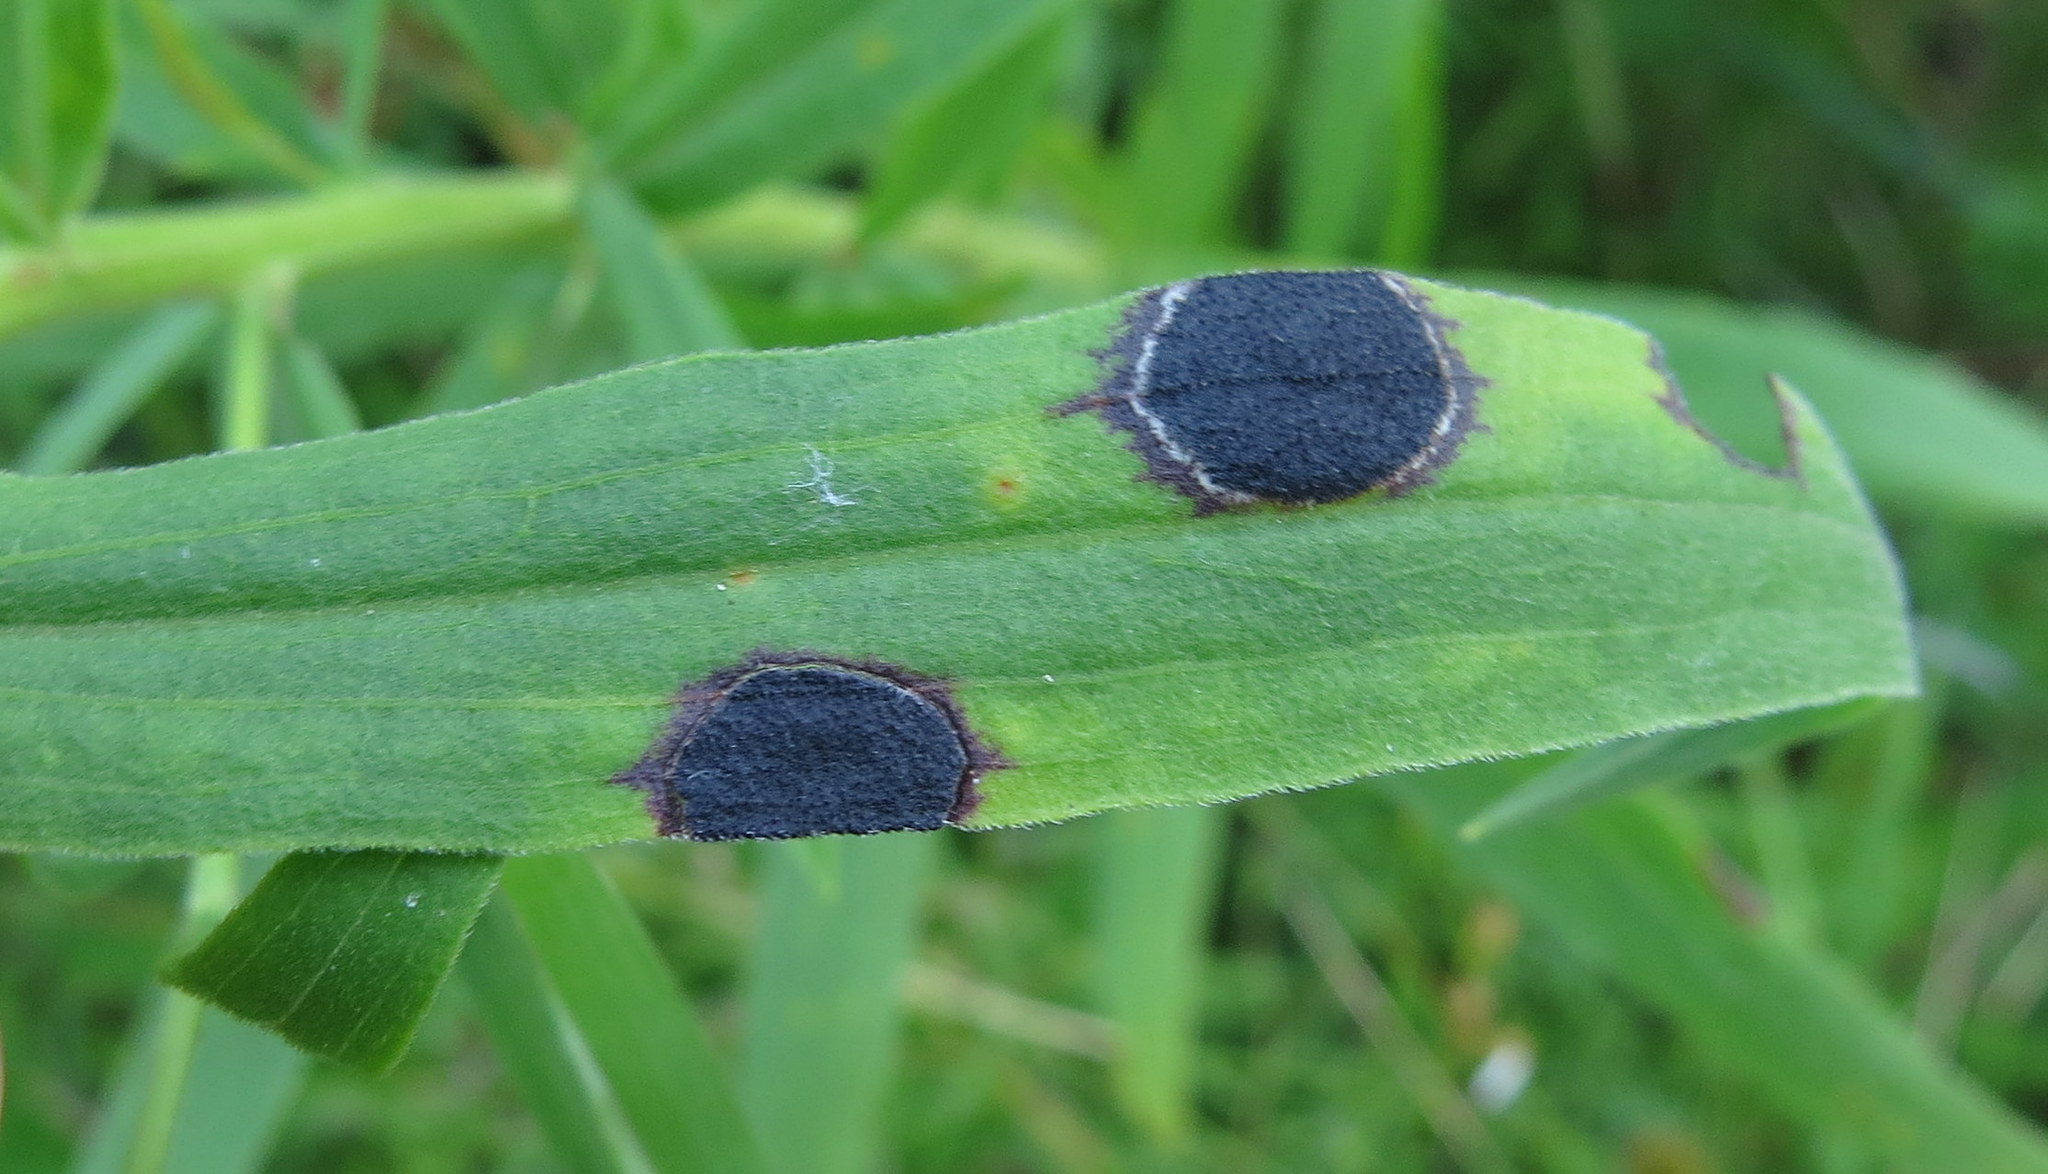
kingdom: Animalia
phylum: Arthropoda
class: Insecta
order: Diptera
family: Cecidomyiidae
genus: Asteromyia
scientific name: Asteromyia euthamiae
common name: Euthamia leaf gall midge
